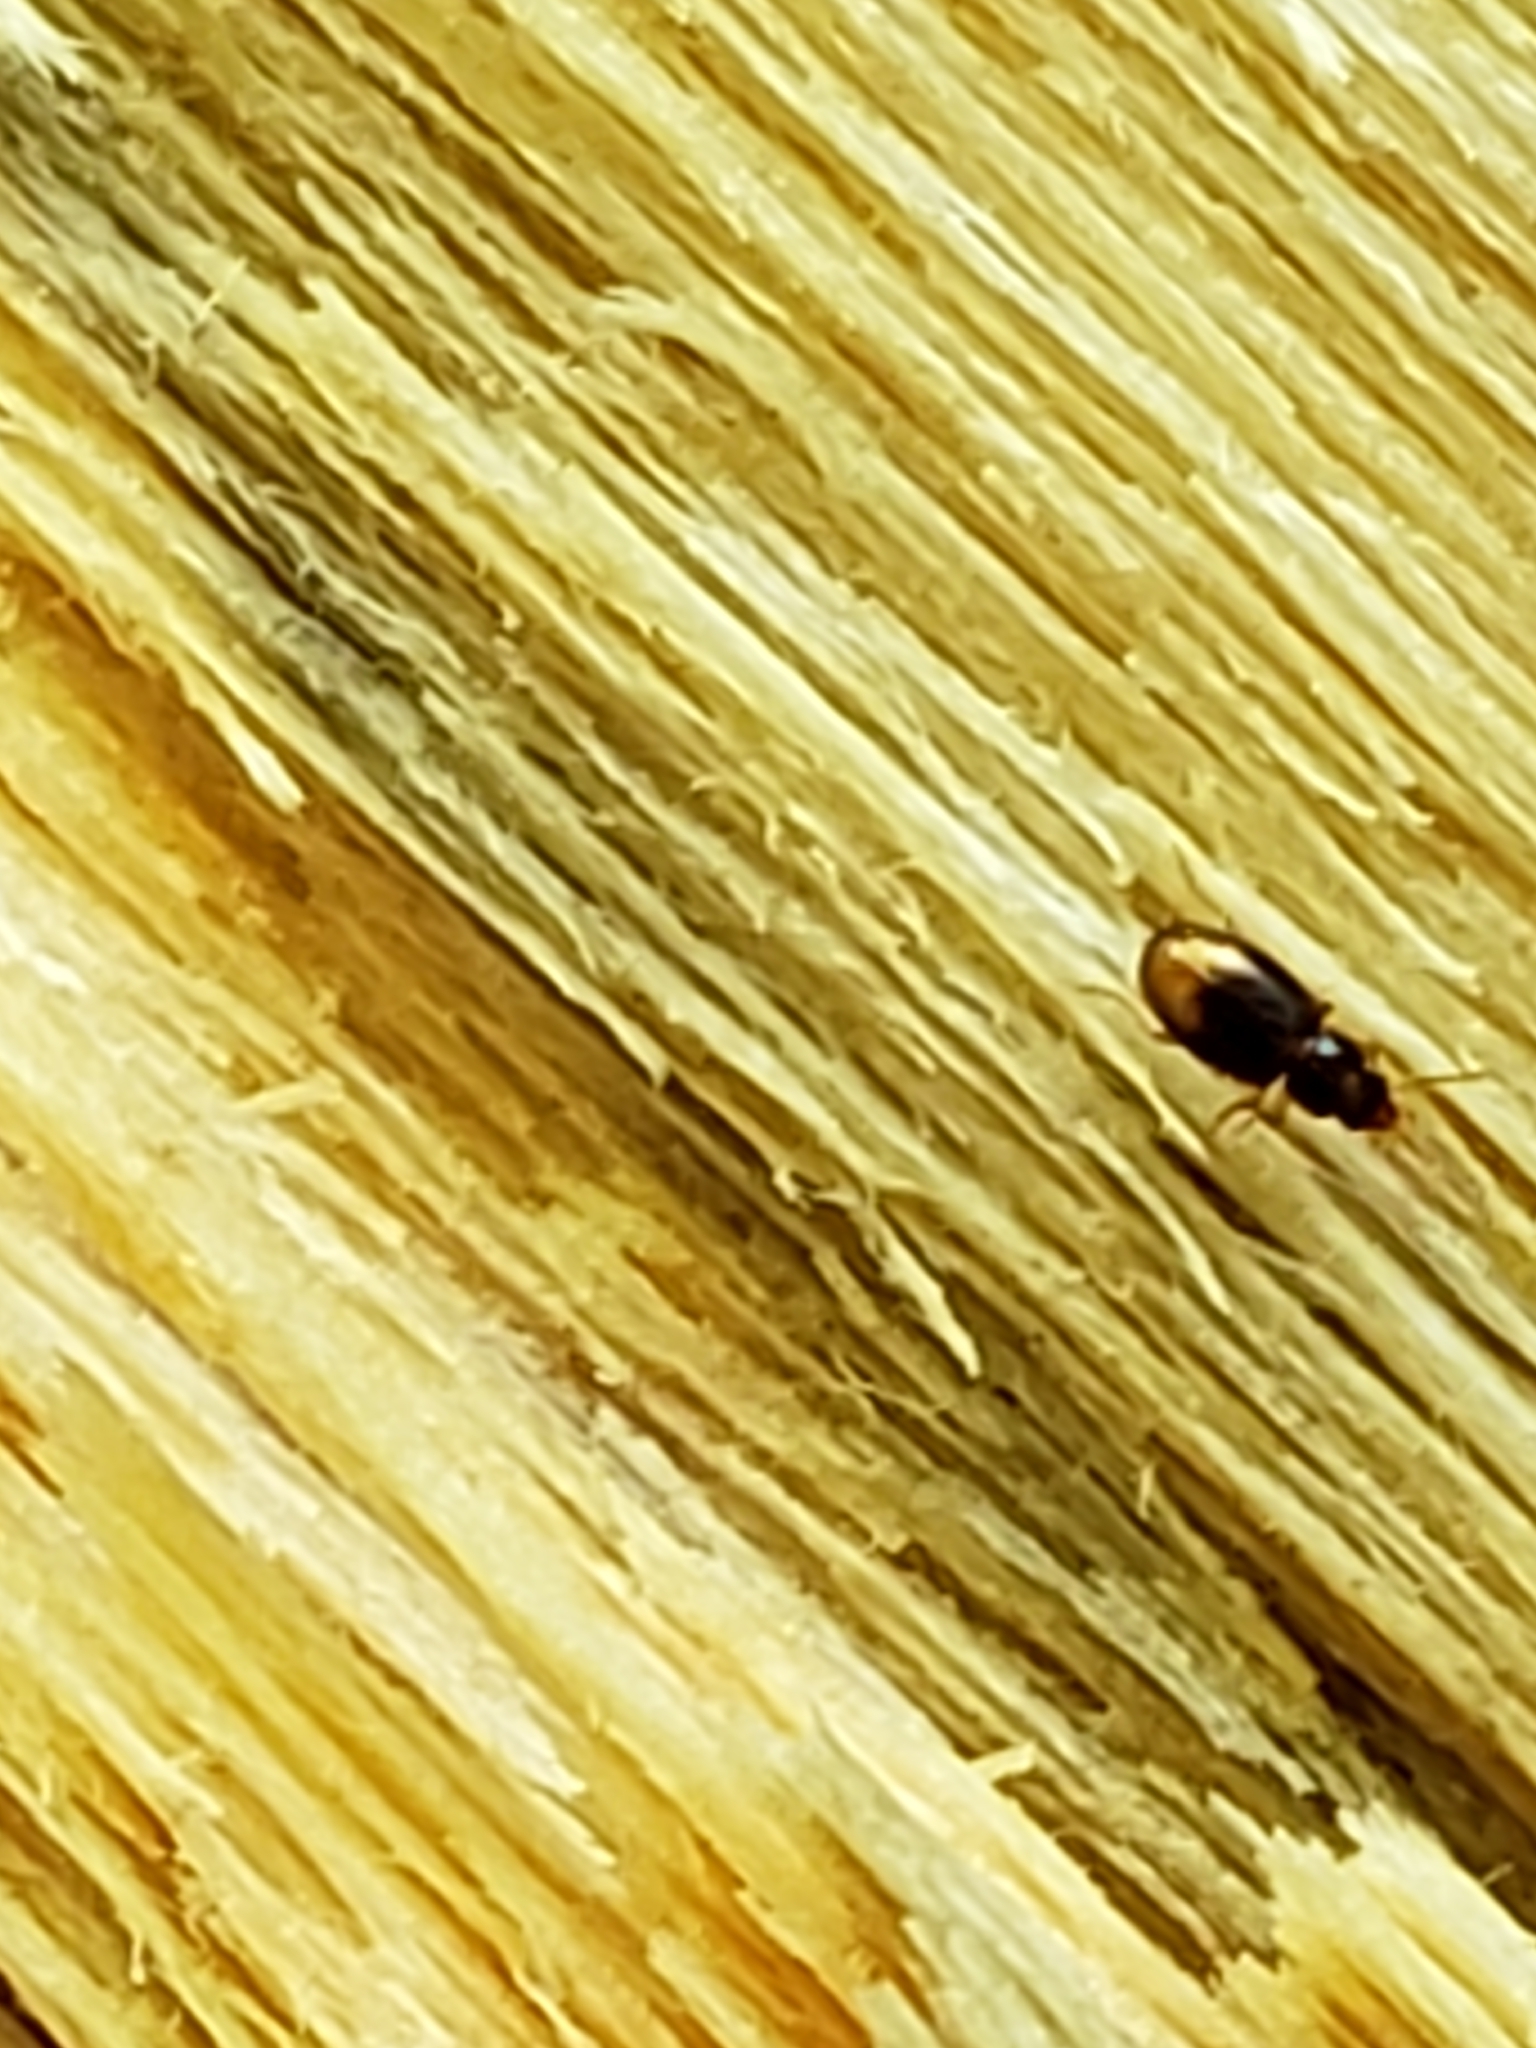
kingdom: Animalia
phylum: Arthropoda
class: Insecta
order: Coleoptera
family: Carabidae
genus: Mioptachys
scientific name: Mioptachys flavicauda
